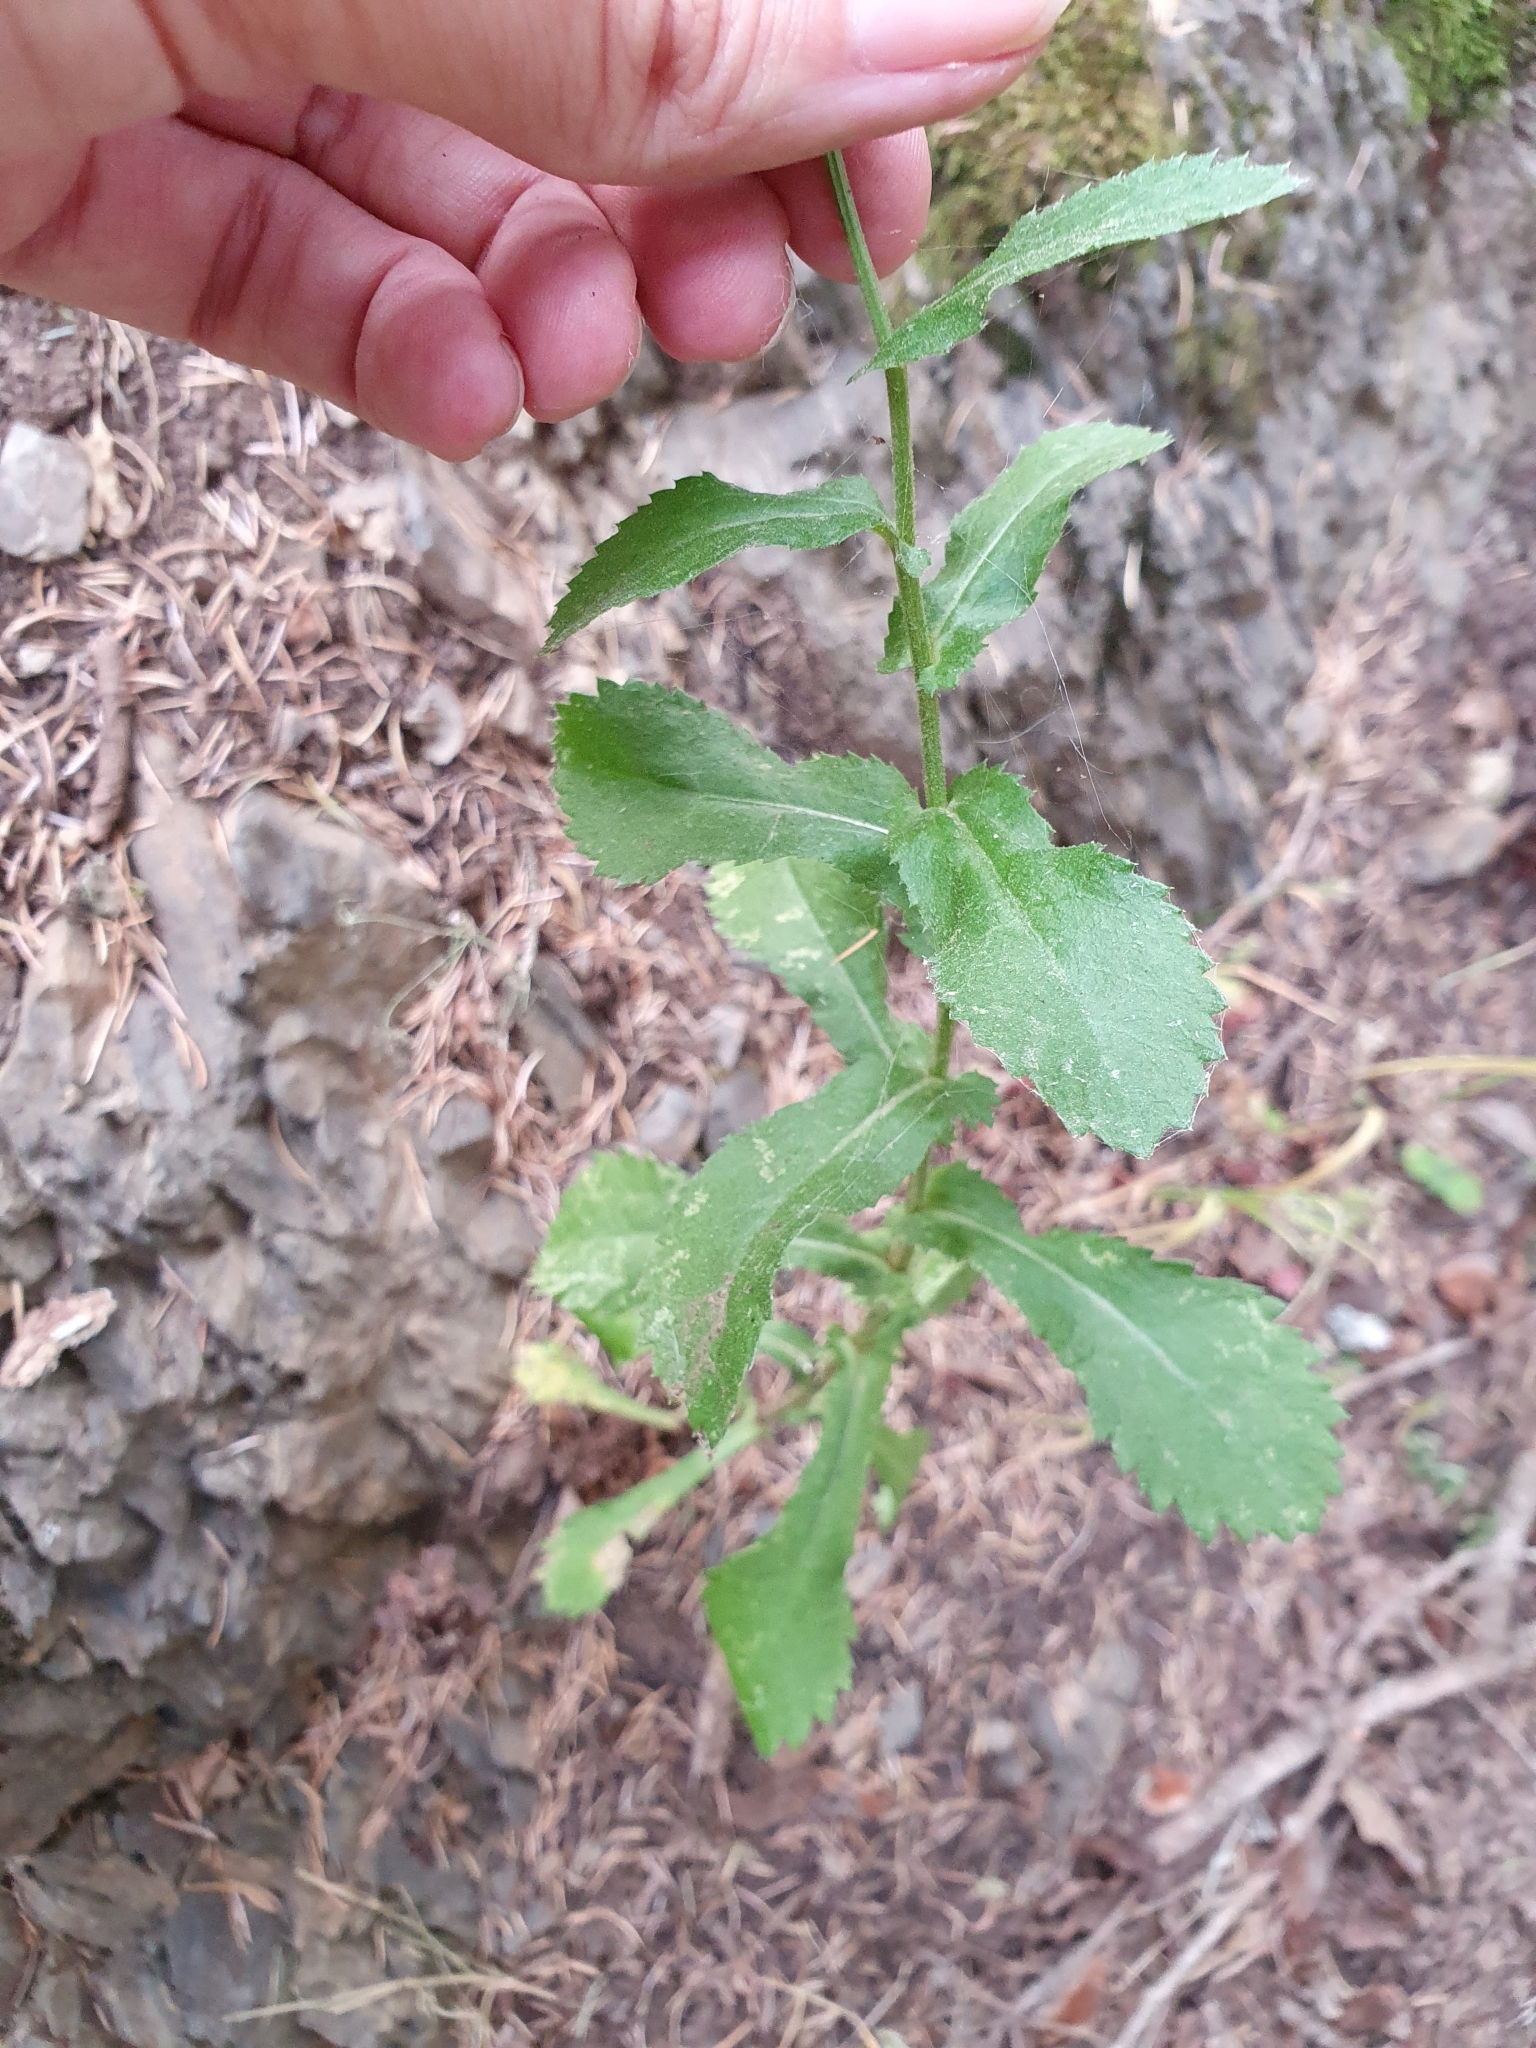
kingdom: Plantae
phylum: Tracheophyta
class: Magnoliopsida
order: Asterales
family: Asteraceae
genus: Plagius
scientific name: Plagius maghrebinus
